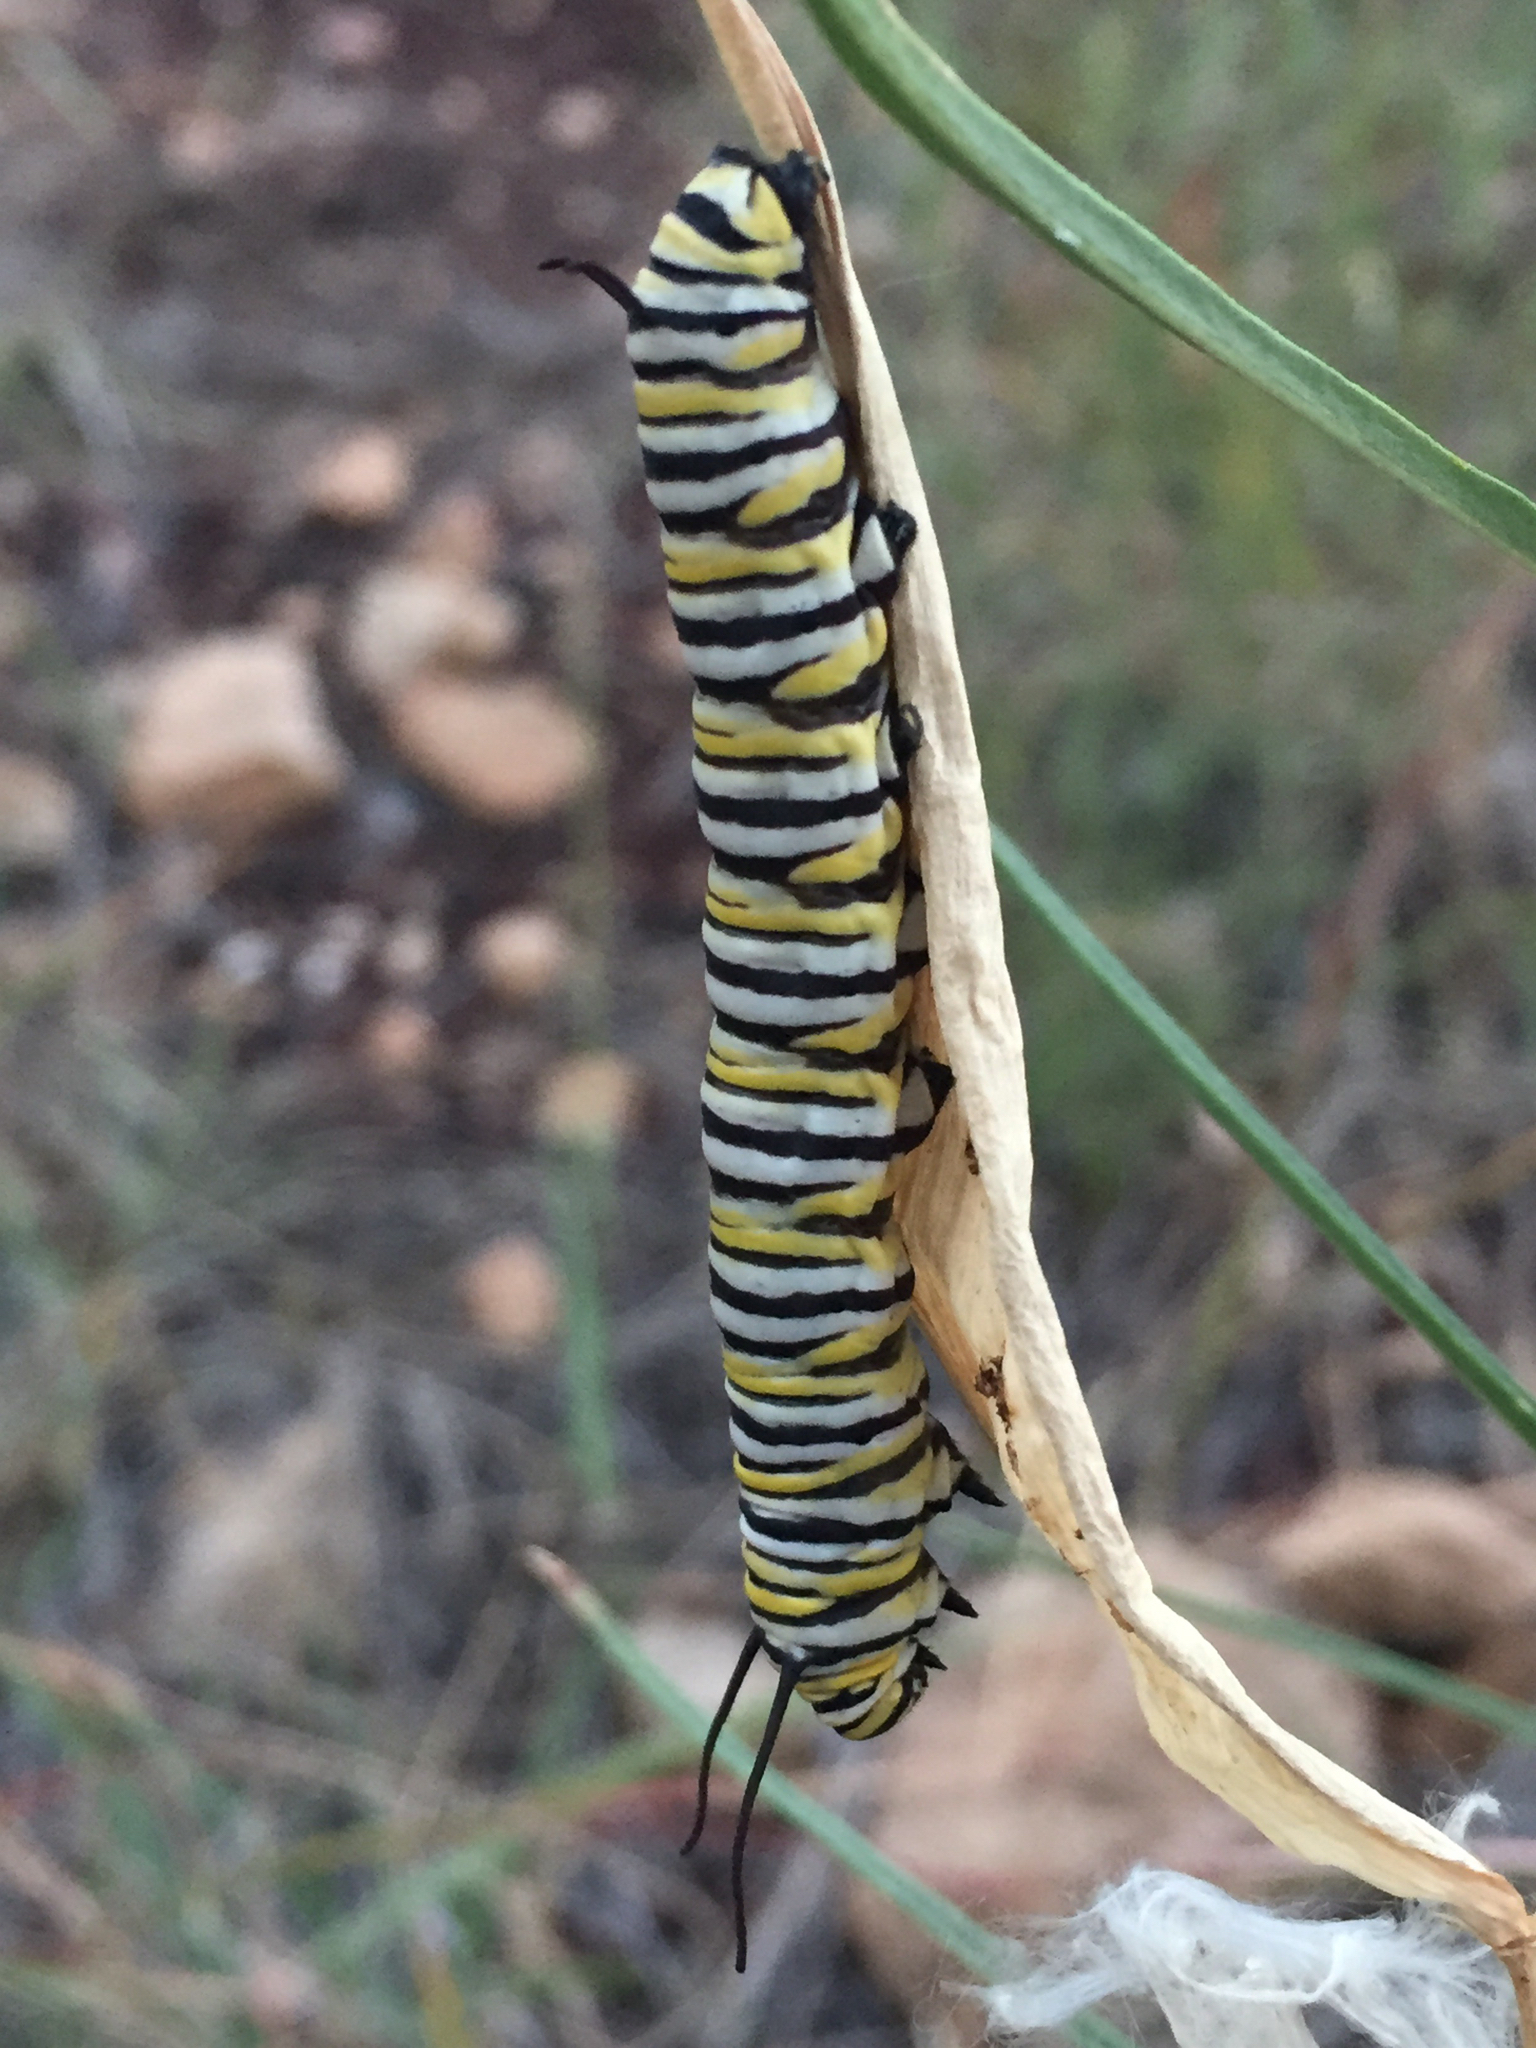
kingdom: Animalia
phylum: Arthropoda
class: Insecta
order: Lepidoptera
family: Nymphalidae
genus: Danaus
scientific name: Danaus plexippus
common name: Monarch
